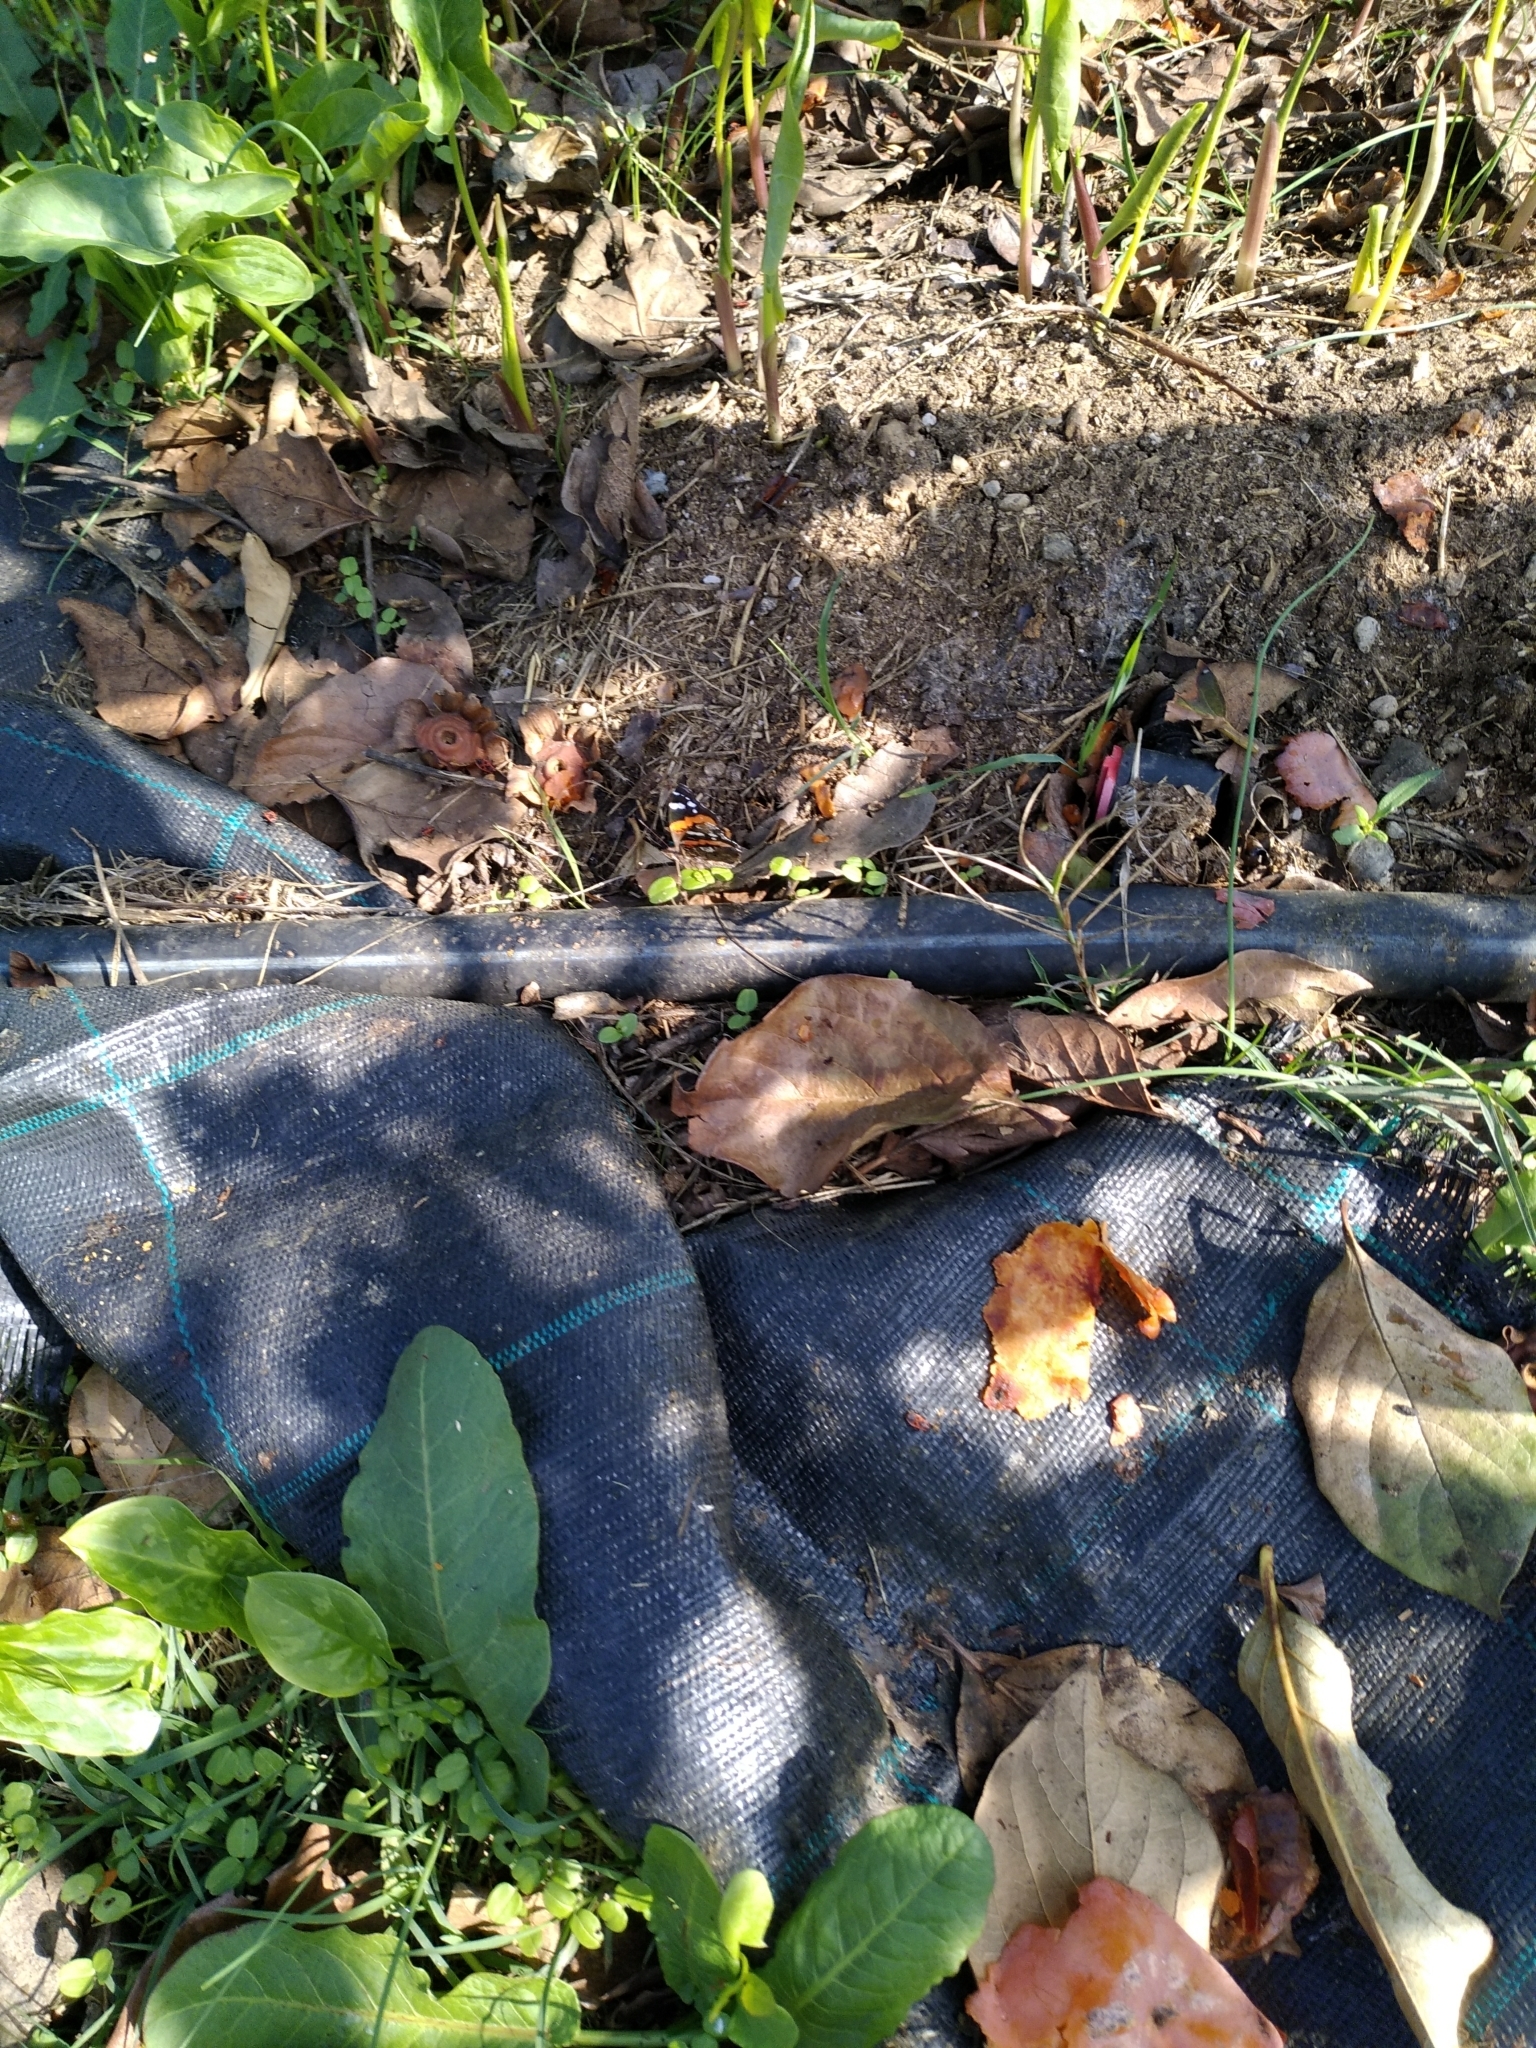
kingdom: Animalia
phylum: Arthropoda
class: Insecta
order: Lepidoptera
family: Nymphalidae
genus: Vanessa
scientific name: Vanessa atalanta
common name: Red admiral
